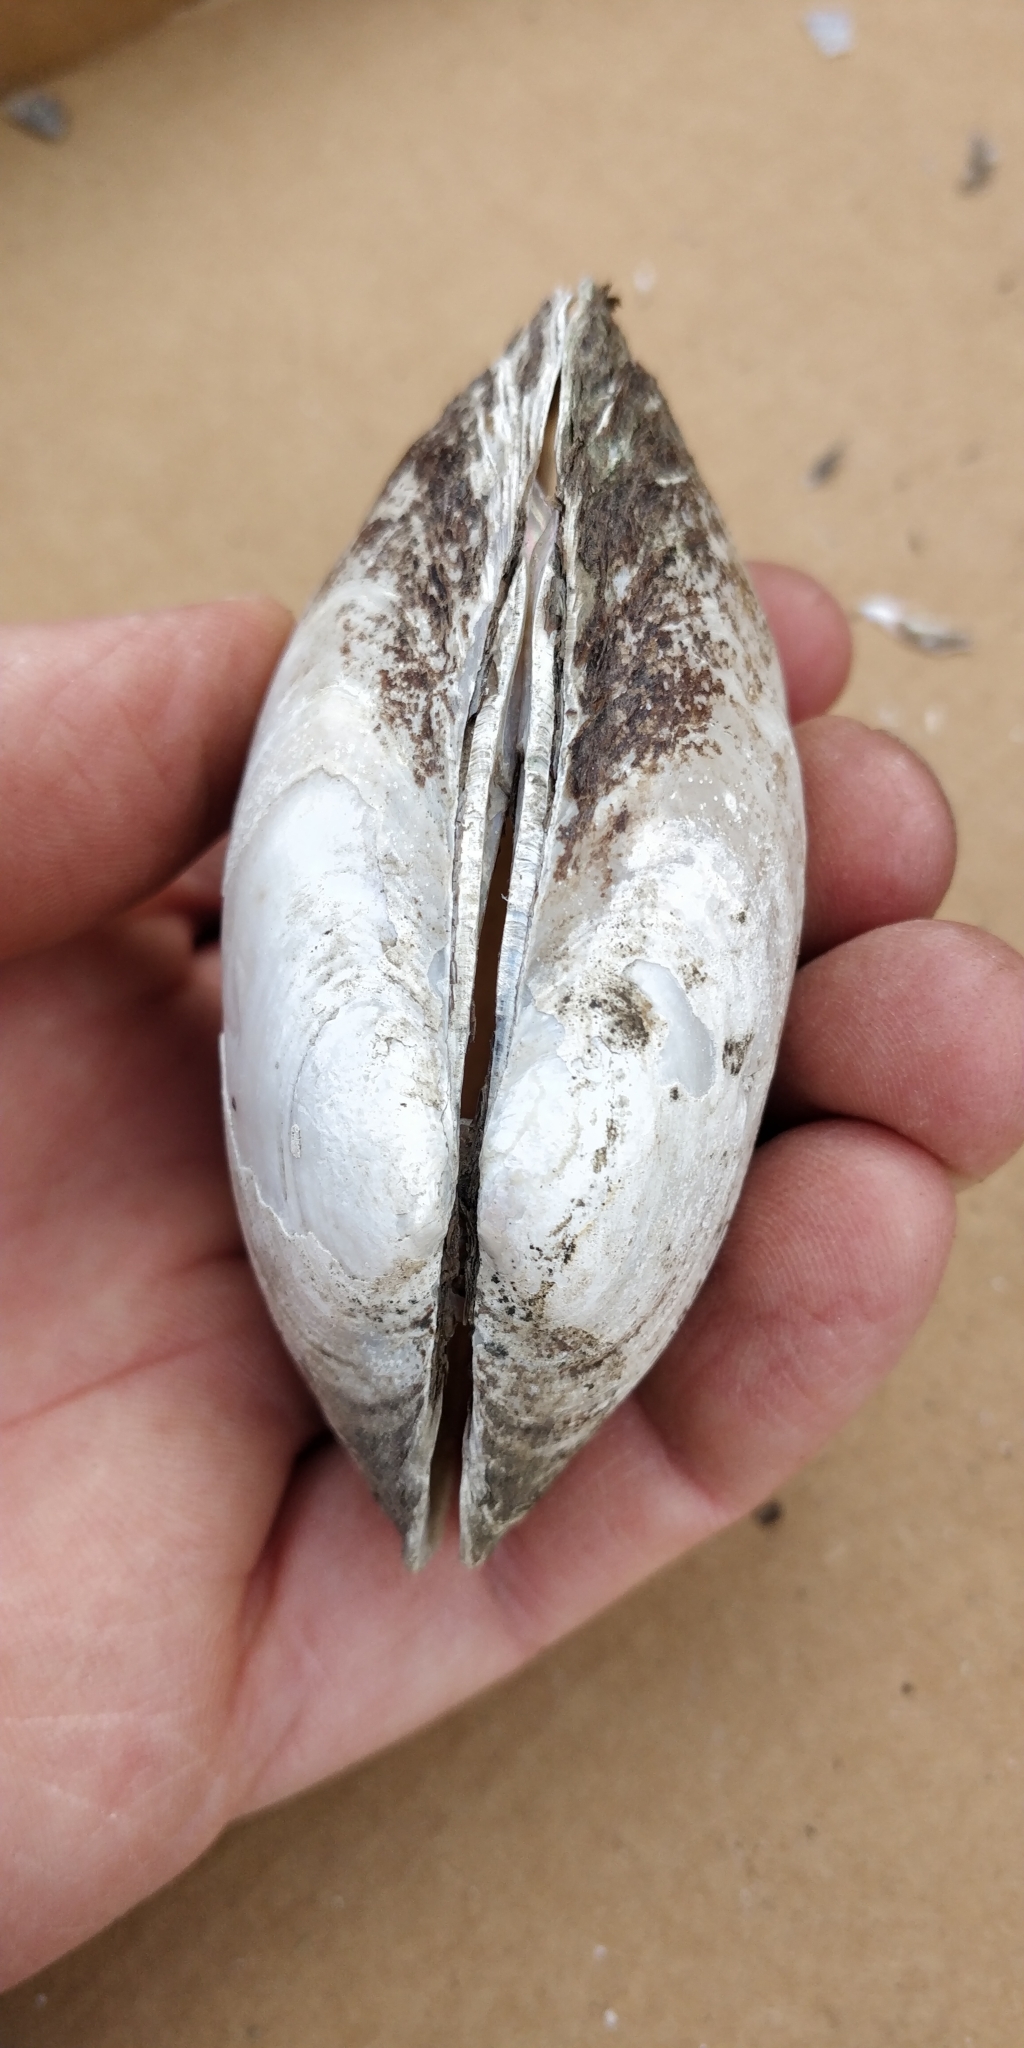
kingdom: Animalia
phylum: Mollusca
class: Bivalvia
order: Unionida
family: Unionidae
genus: Lampsilis
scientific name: Lampsilis siliquoidea
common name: Fatmucket
